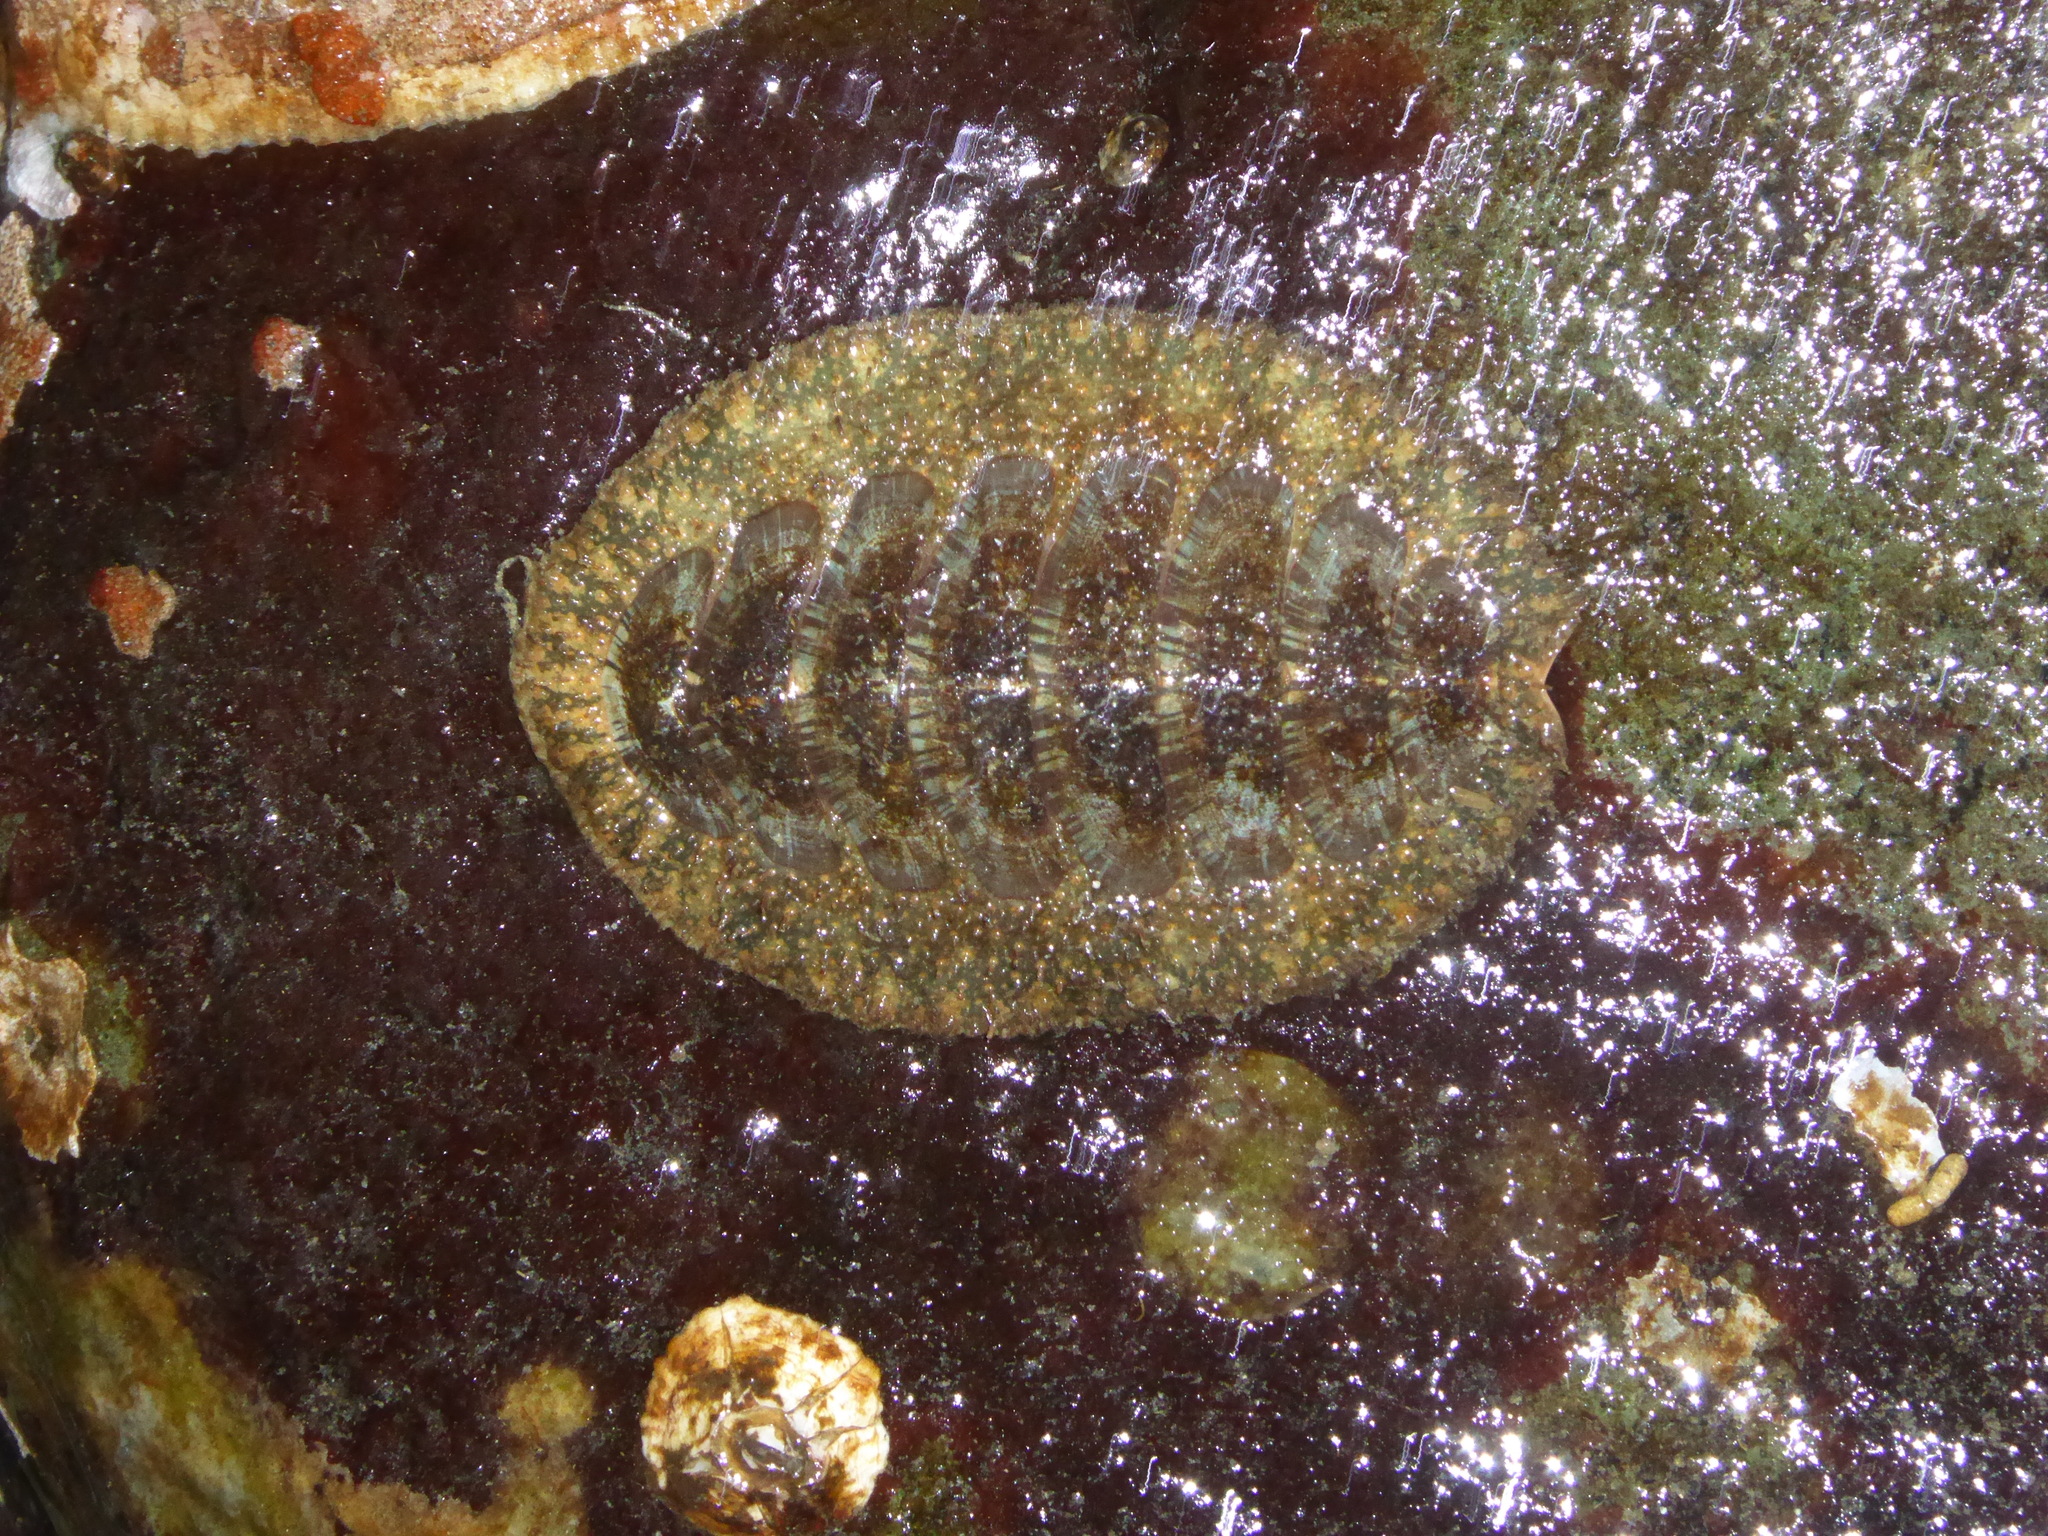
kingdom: Animalia
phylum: Mollusca
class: Polyplacophora
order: Chitonida
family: Mopaliidae
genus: Mopalia
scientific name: Mopalia lignosa
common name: Woody chiton
